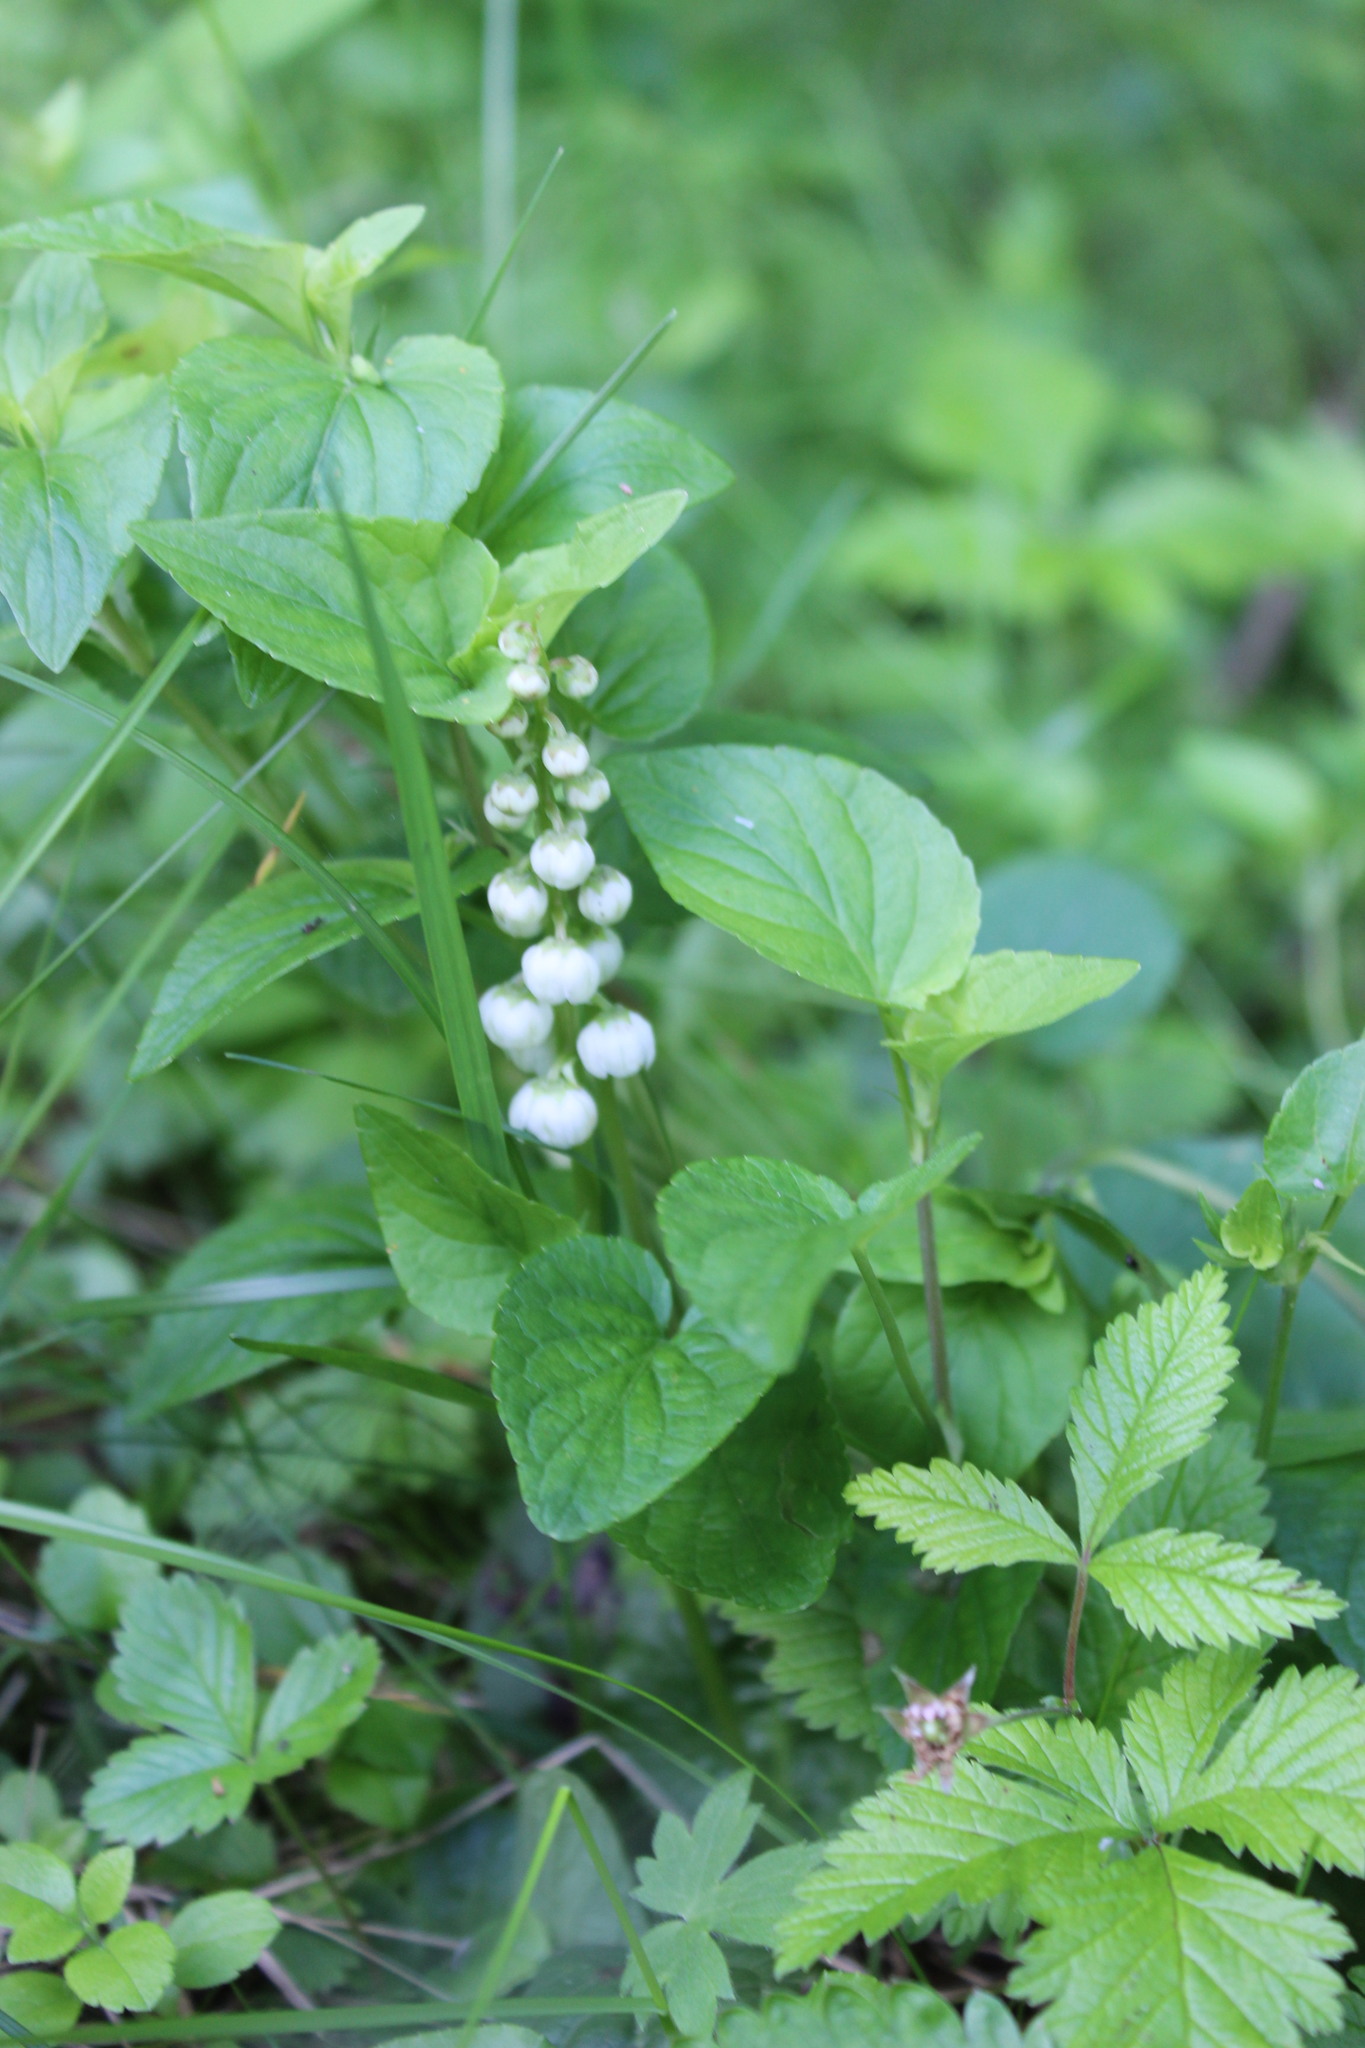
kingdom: Plantae
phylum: Tracheophyta
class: Magnoliopsida
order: Ericales
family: Ericaceae
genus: Pyrola
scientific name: Pyrola minor
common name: Common wintergreen
